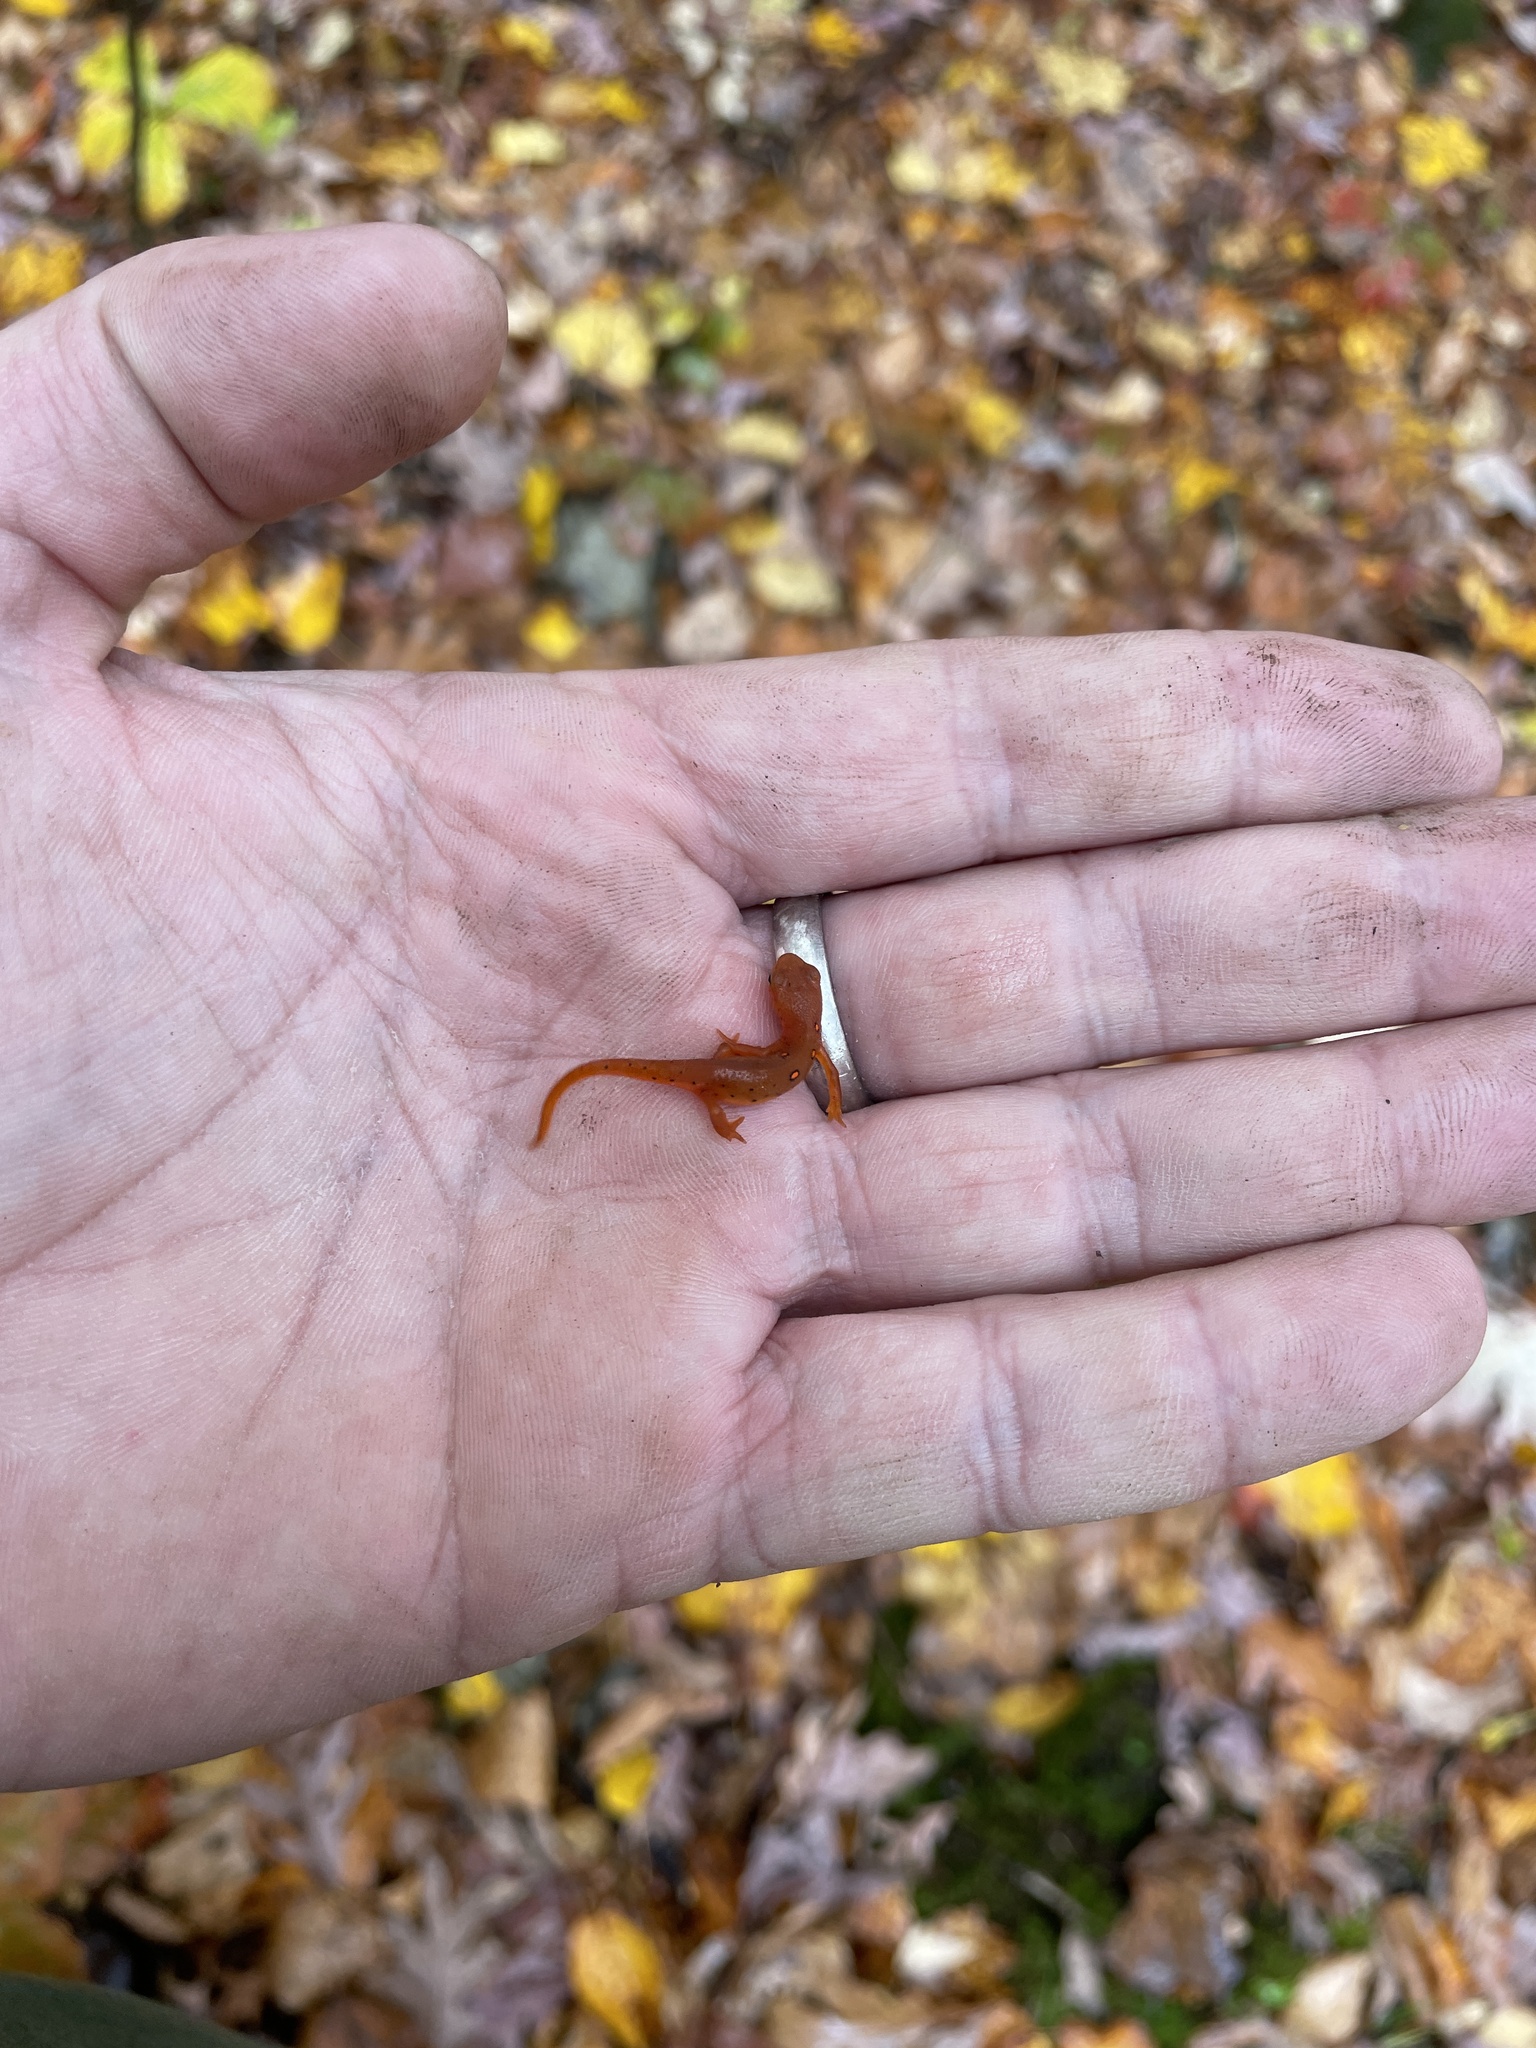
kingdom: Animalia
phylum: Chordata
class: Amphibia
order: Caudata
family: Salamandridae
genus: Notophthalmus
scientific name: Notophthalmus viridescens
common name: Eastern newt
